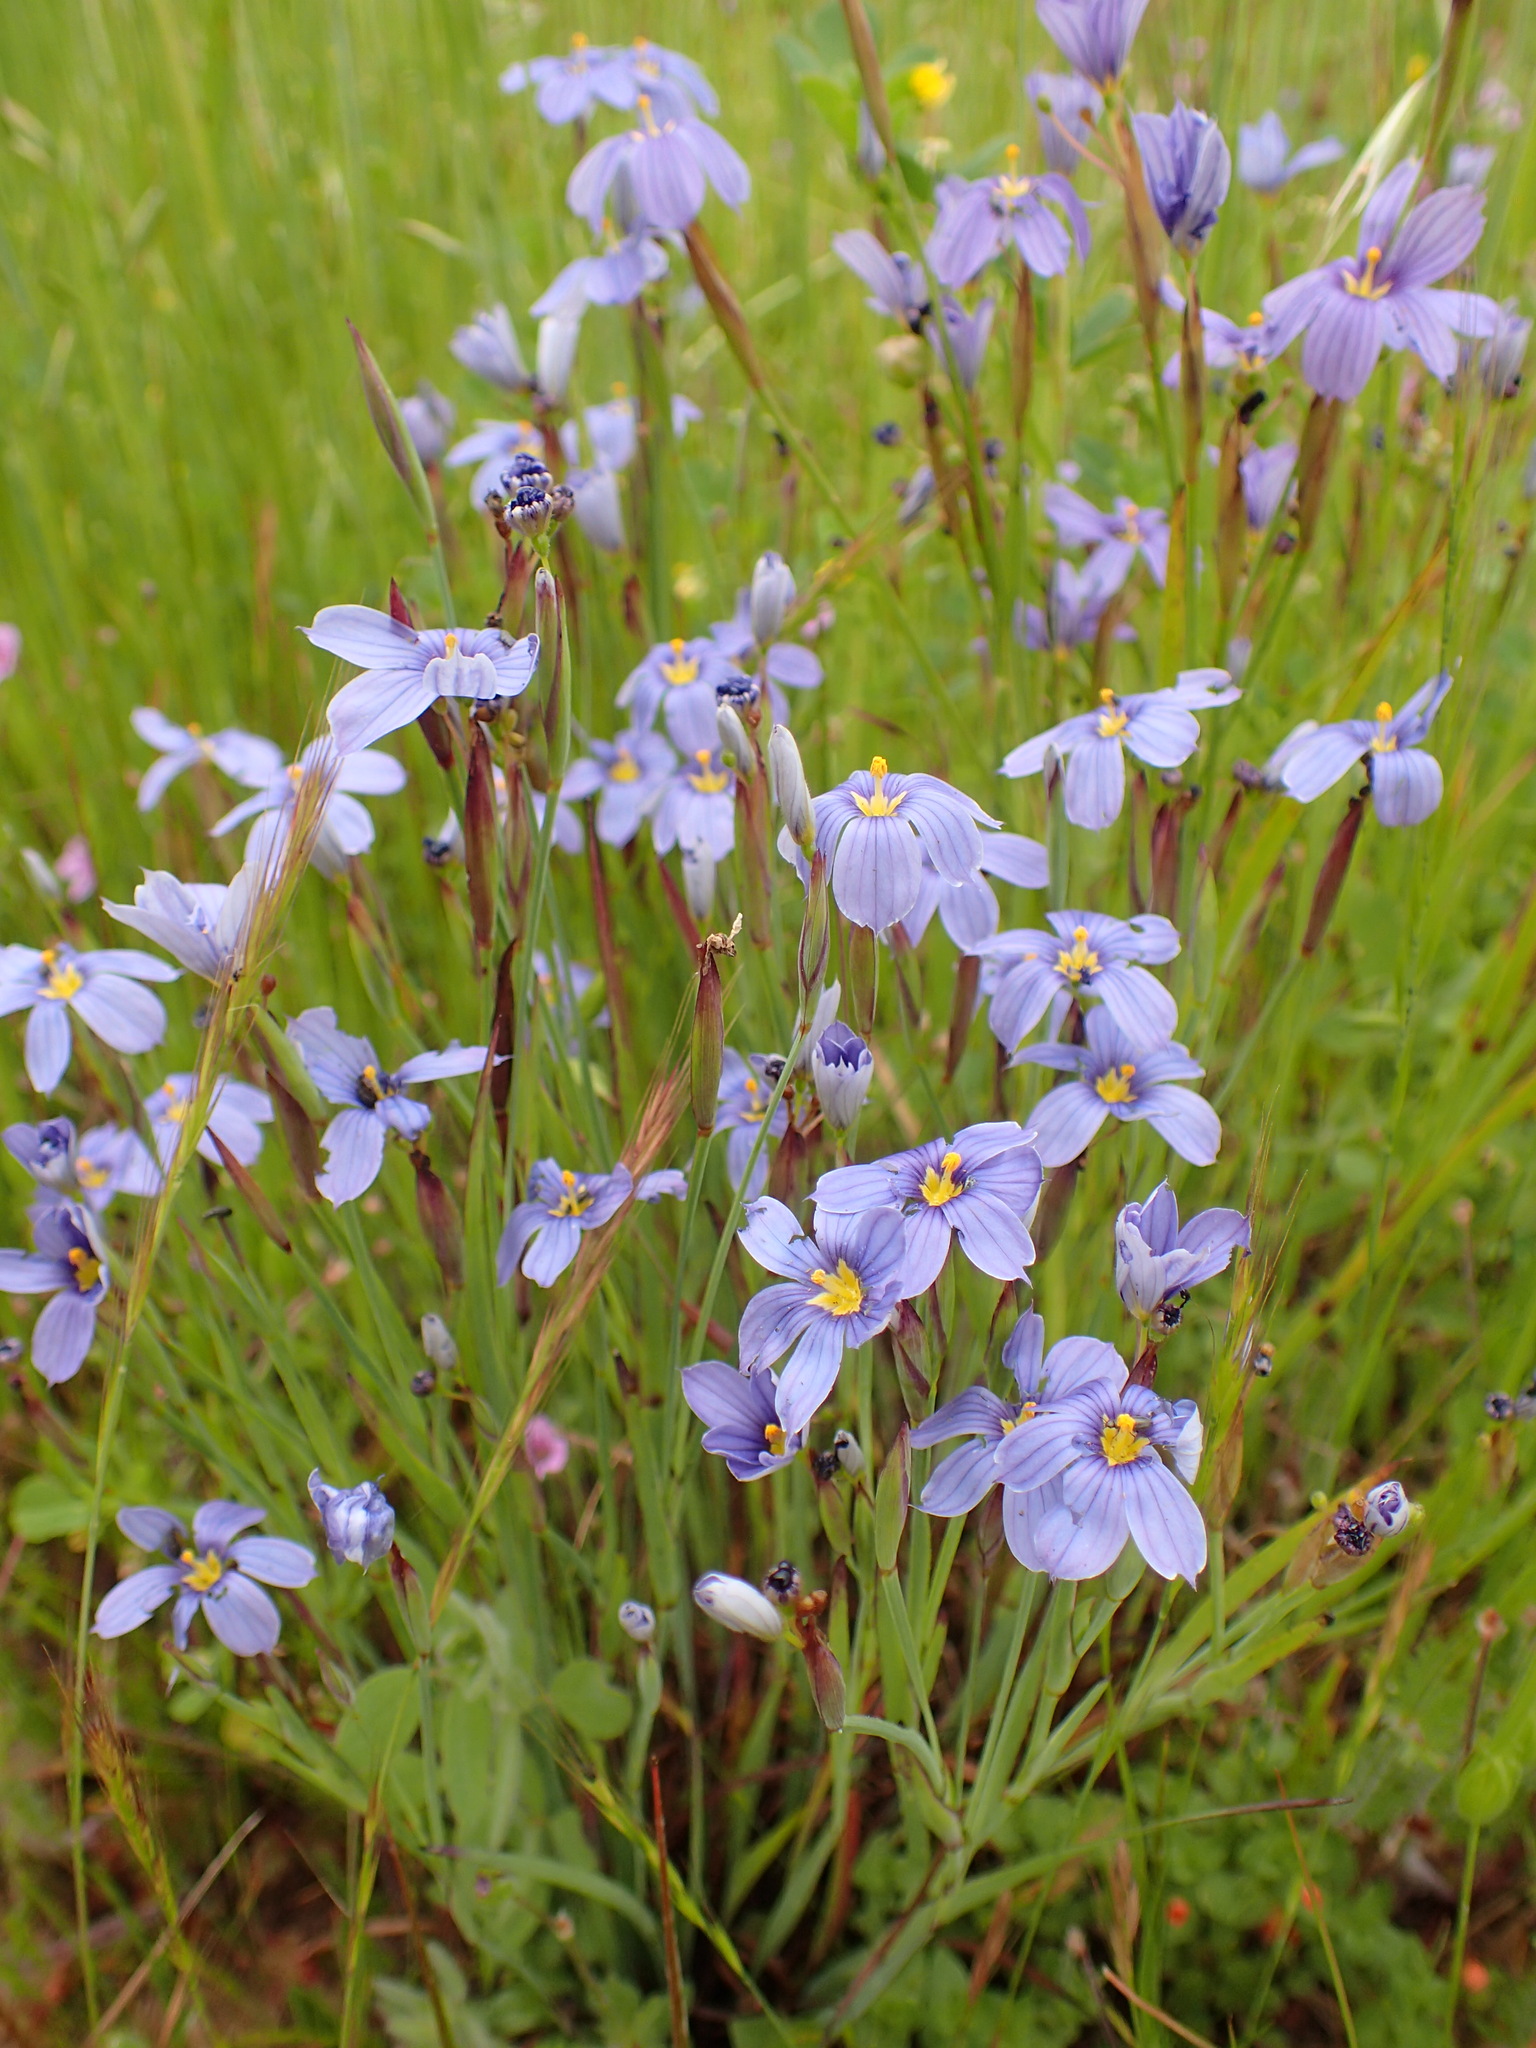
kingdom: Plantae
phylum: Tracheophyta
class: Liliopsida
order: Asparagales
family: Iridaceae
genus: Sisyrinchium
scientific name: Sisyrinchium bellum
